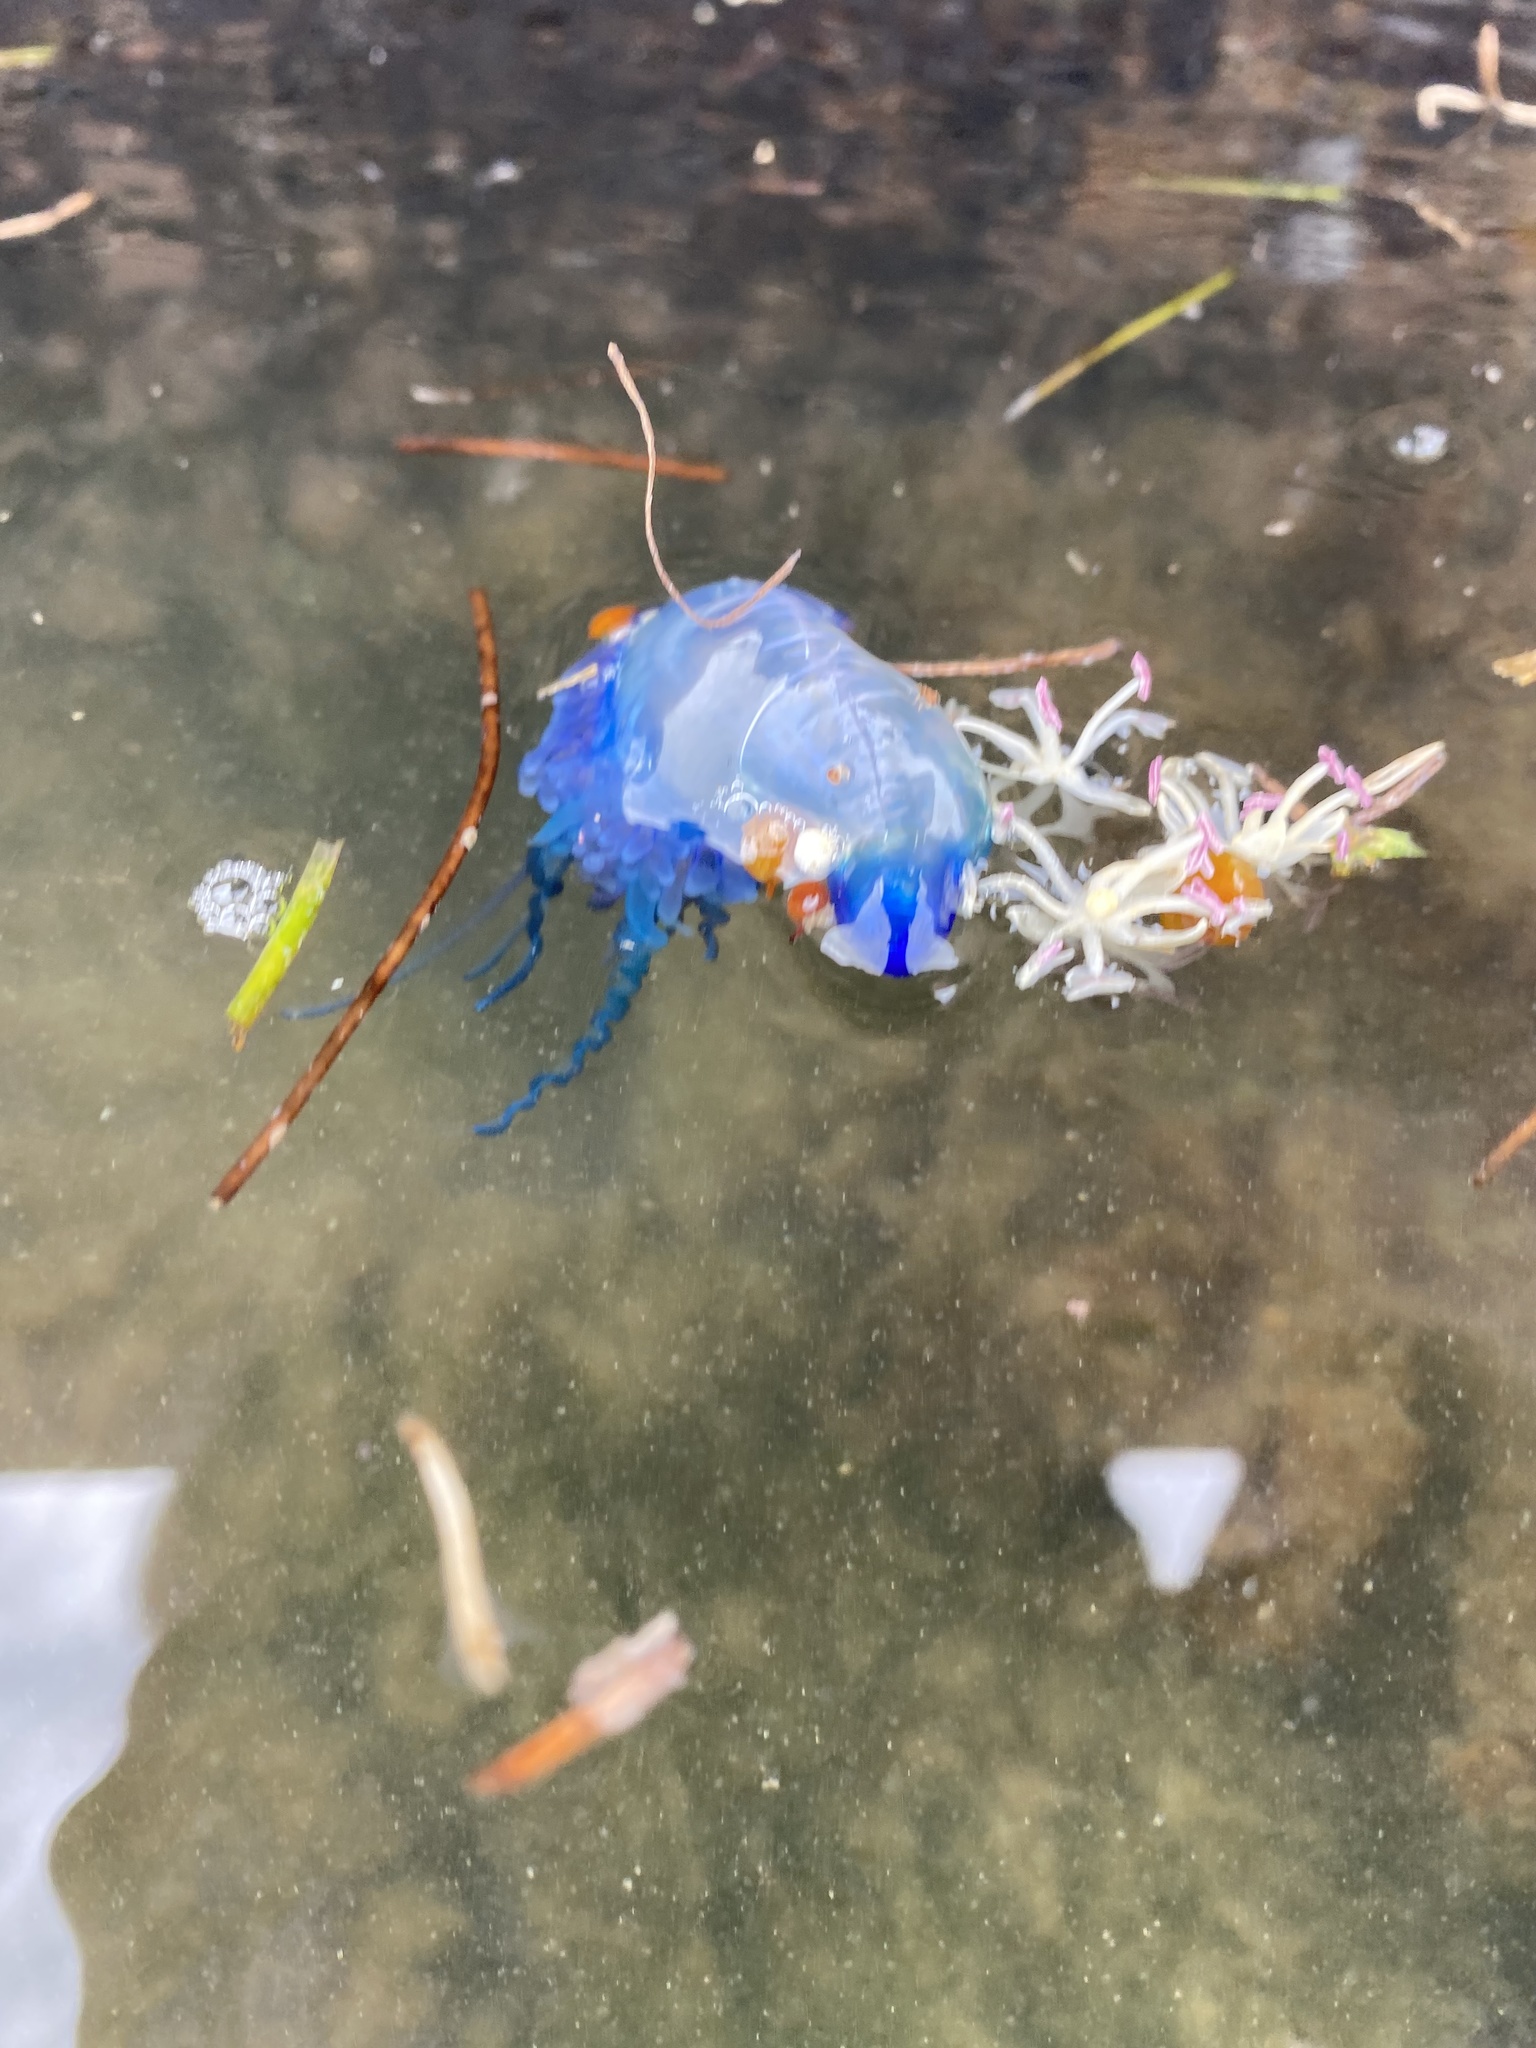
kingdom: Animalia
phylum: Cnidaria
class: Hydrozoa
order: Siphonophorae
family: Physaliidae
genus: Physalia
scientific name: Physalia physalis
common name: Portuguese man-of-war
